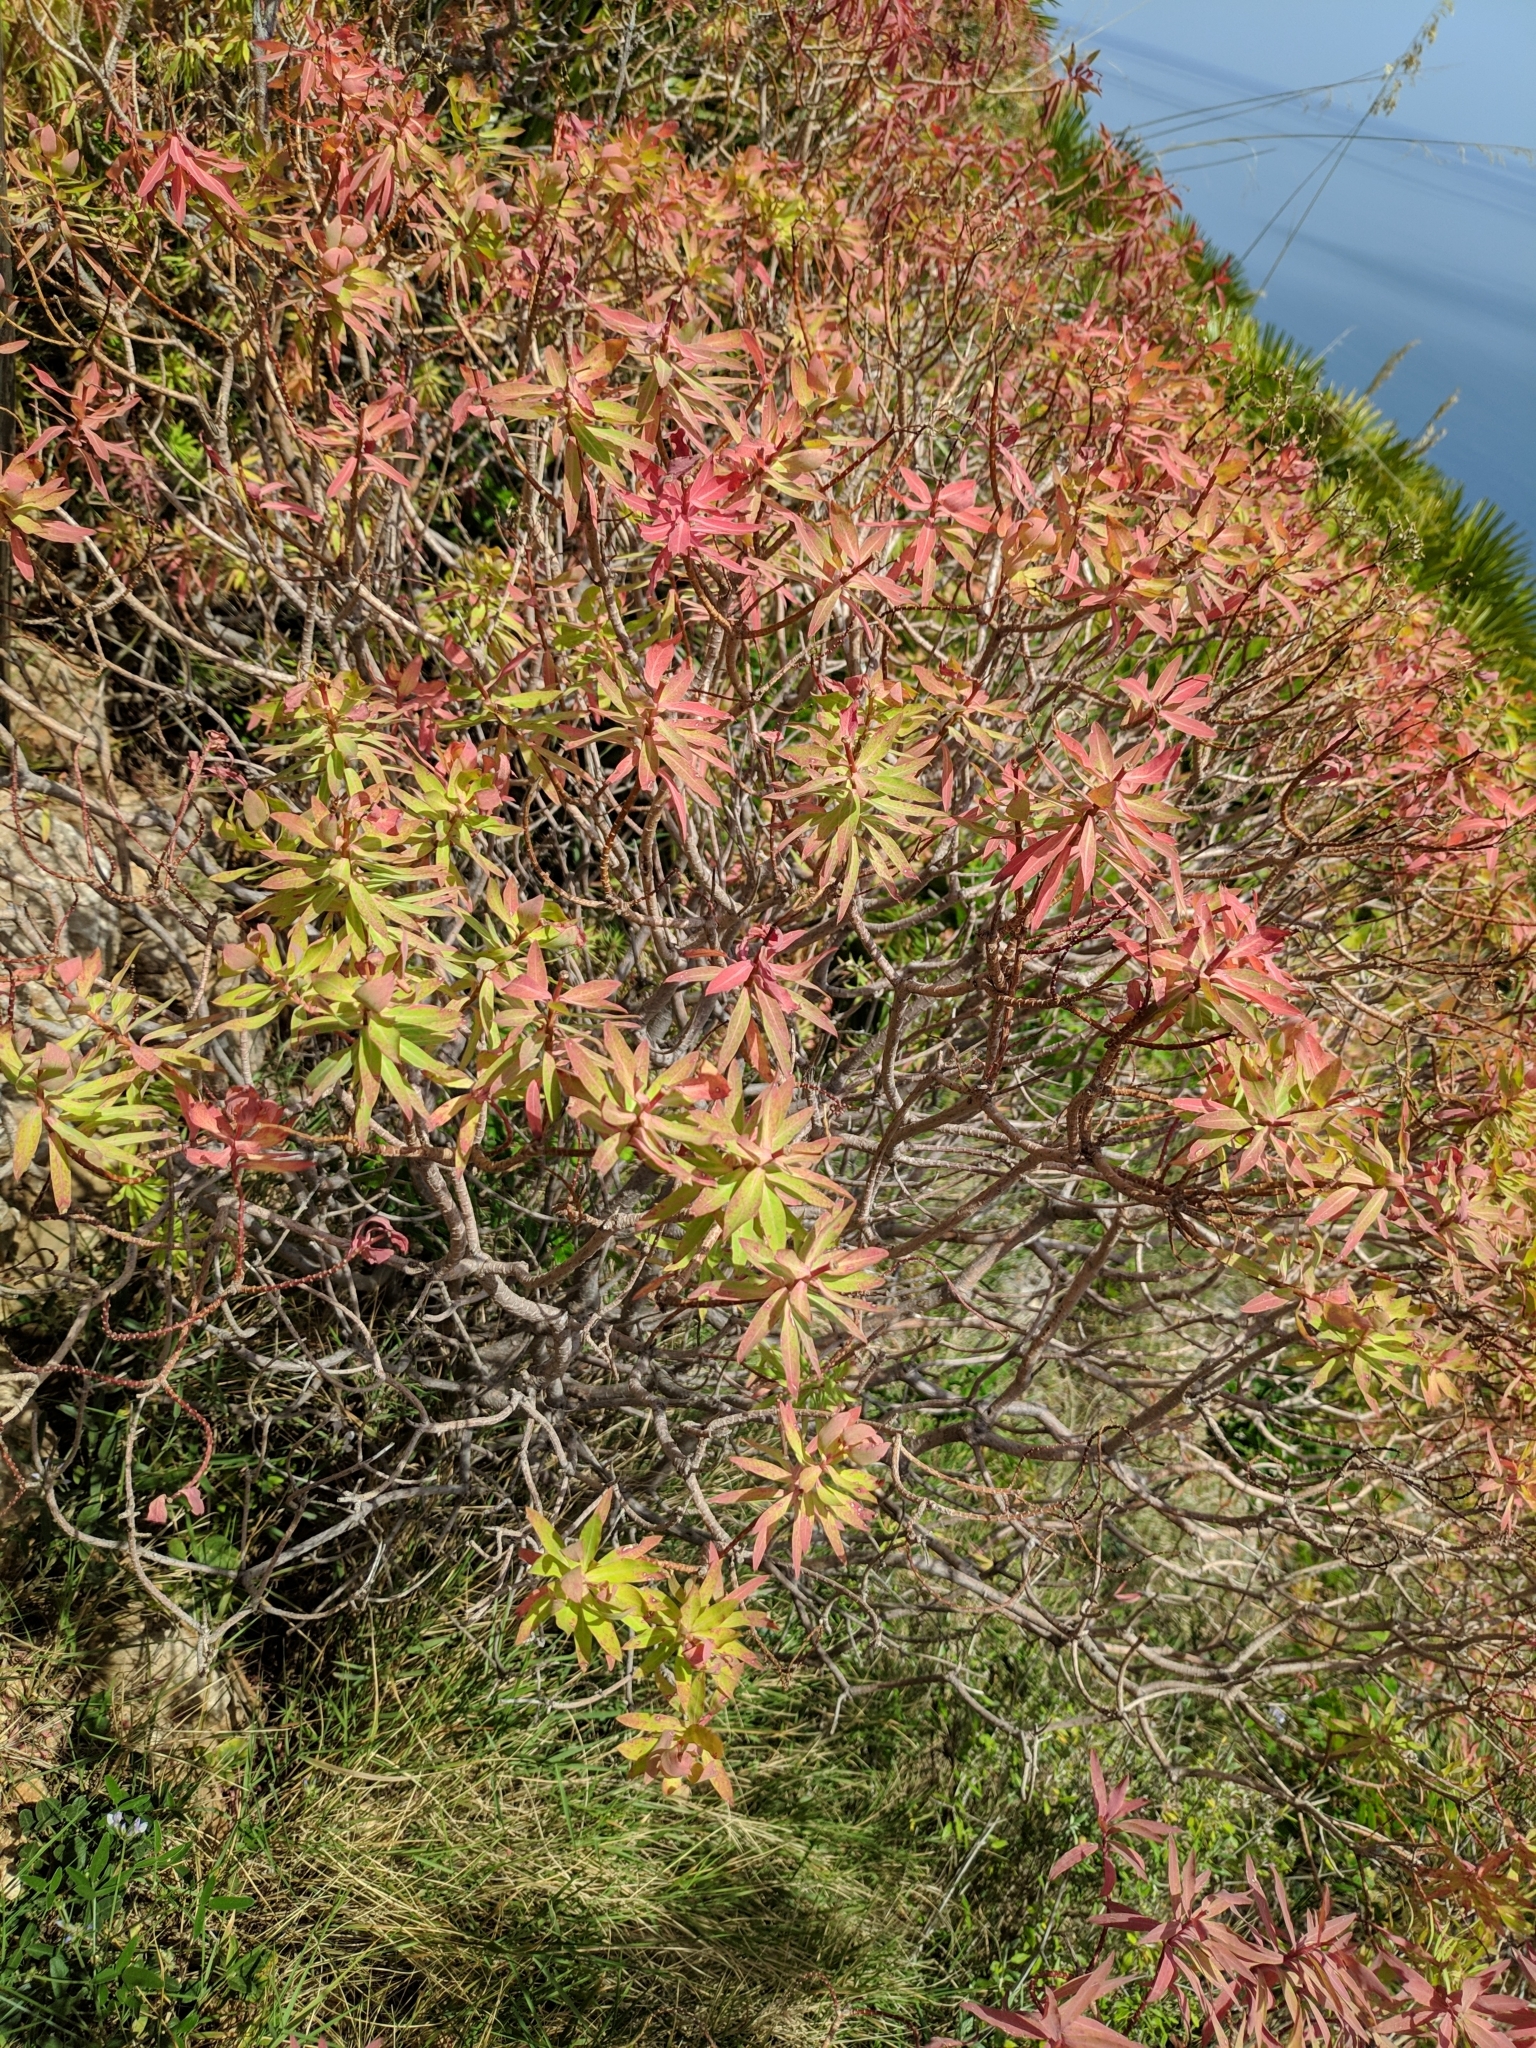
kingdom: Plantae
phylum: Tracheophyta
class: Magnoliopsida
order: Malpighiales
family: Euphorbiaceae
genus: Euphorbia
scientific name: Euphorbia dendroides
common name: Tree spurge
